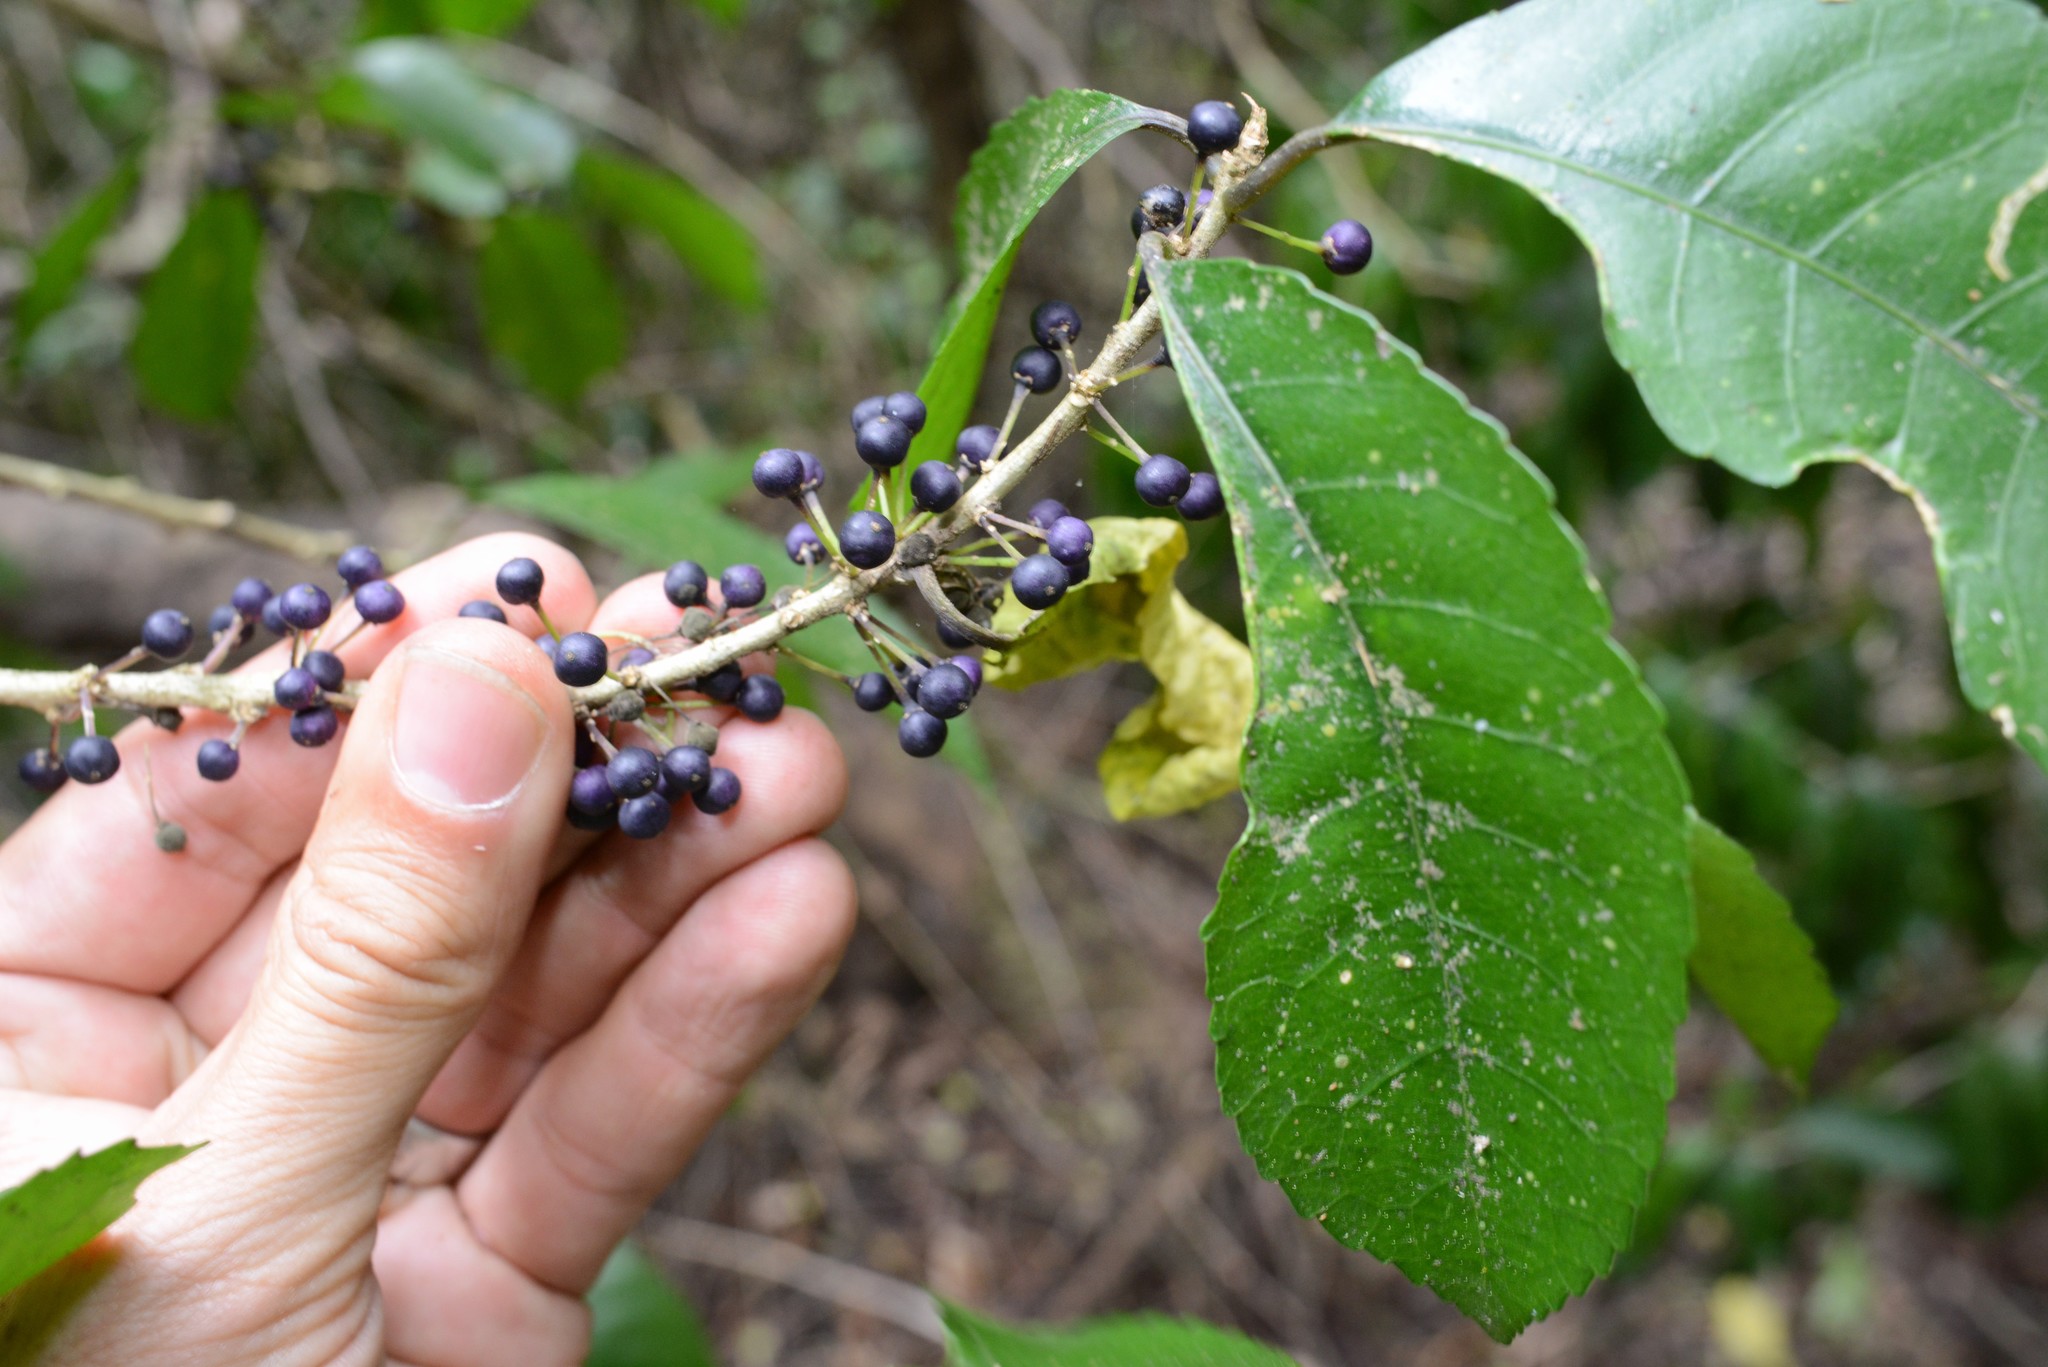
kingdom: Plantae
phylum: Tracheophyta
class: Magnoliopsida
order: Malpighiales
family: Violaceae
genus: Melicytus
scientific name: Melicytus ramiflorus
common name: Mahoe
